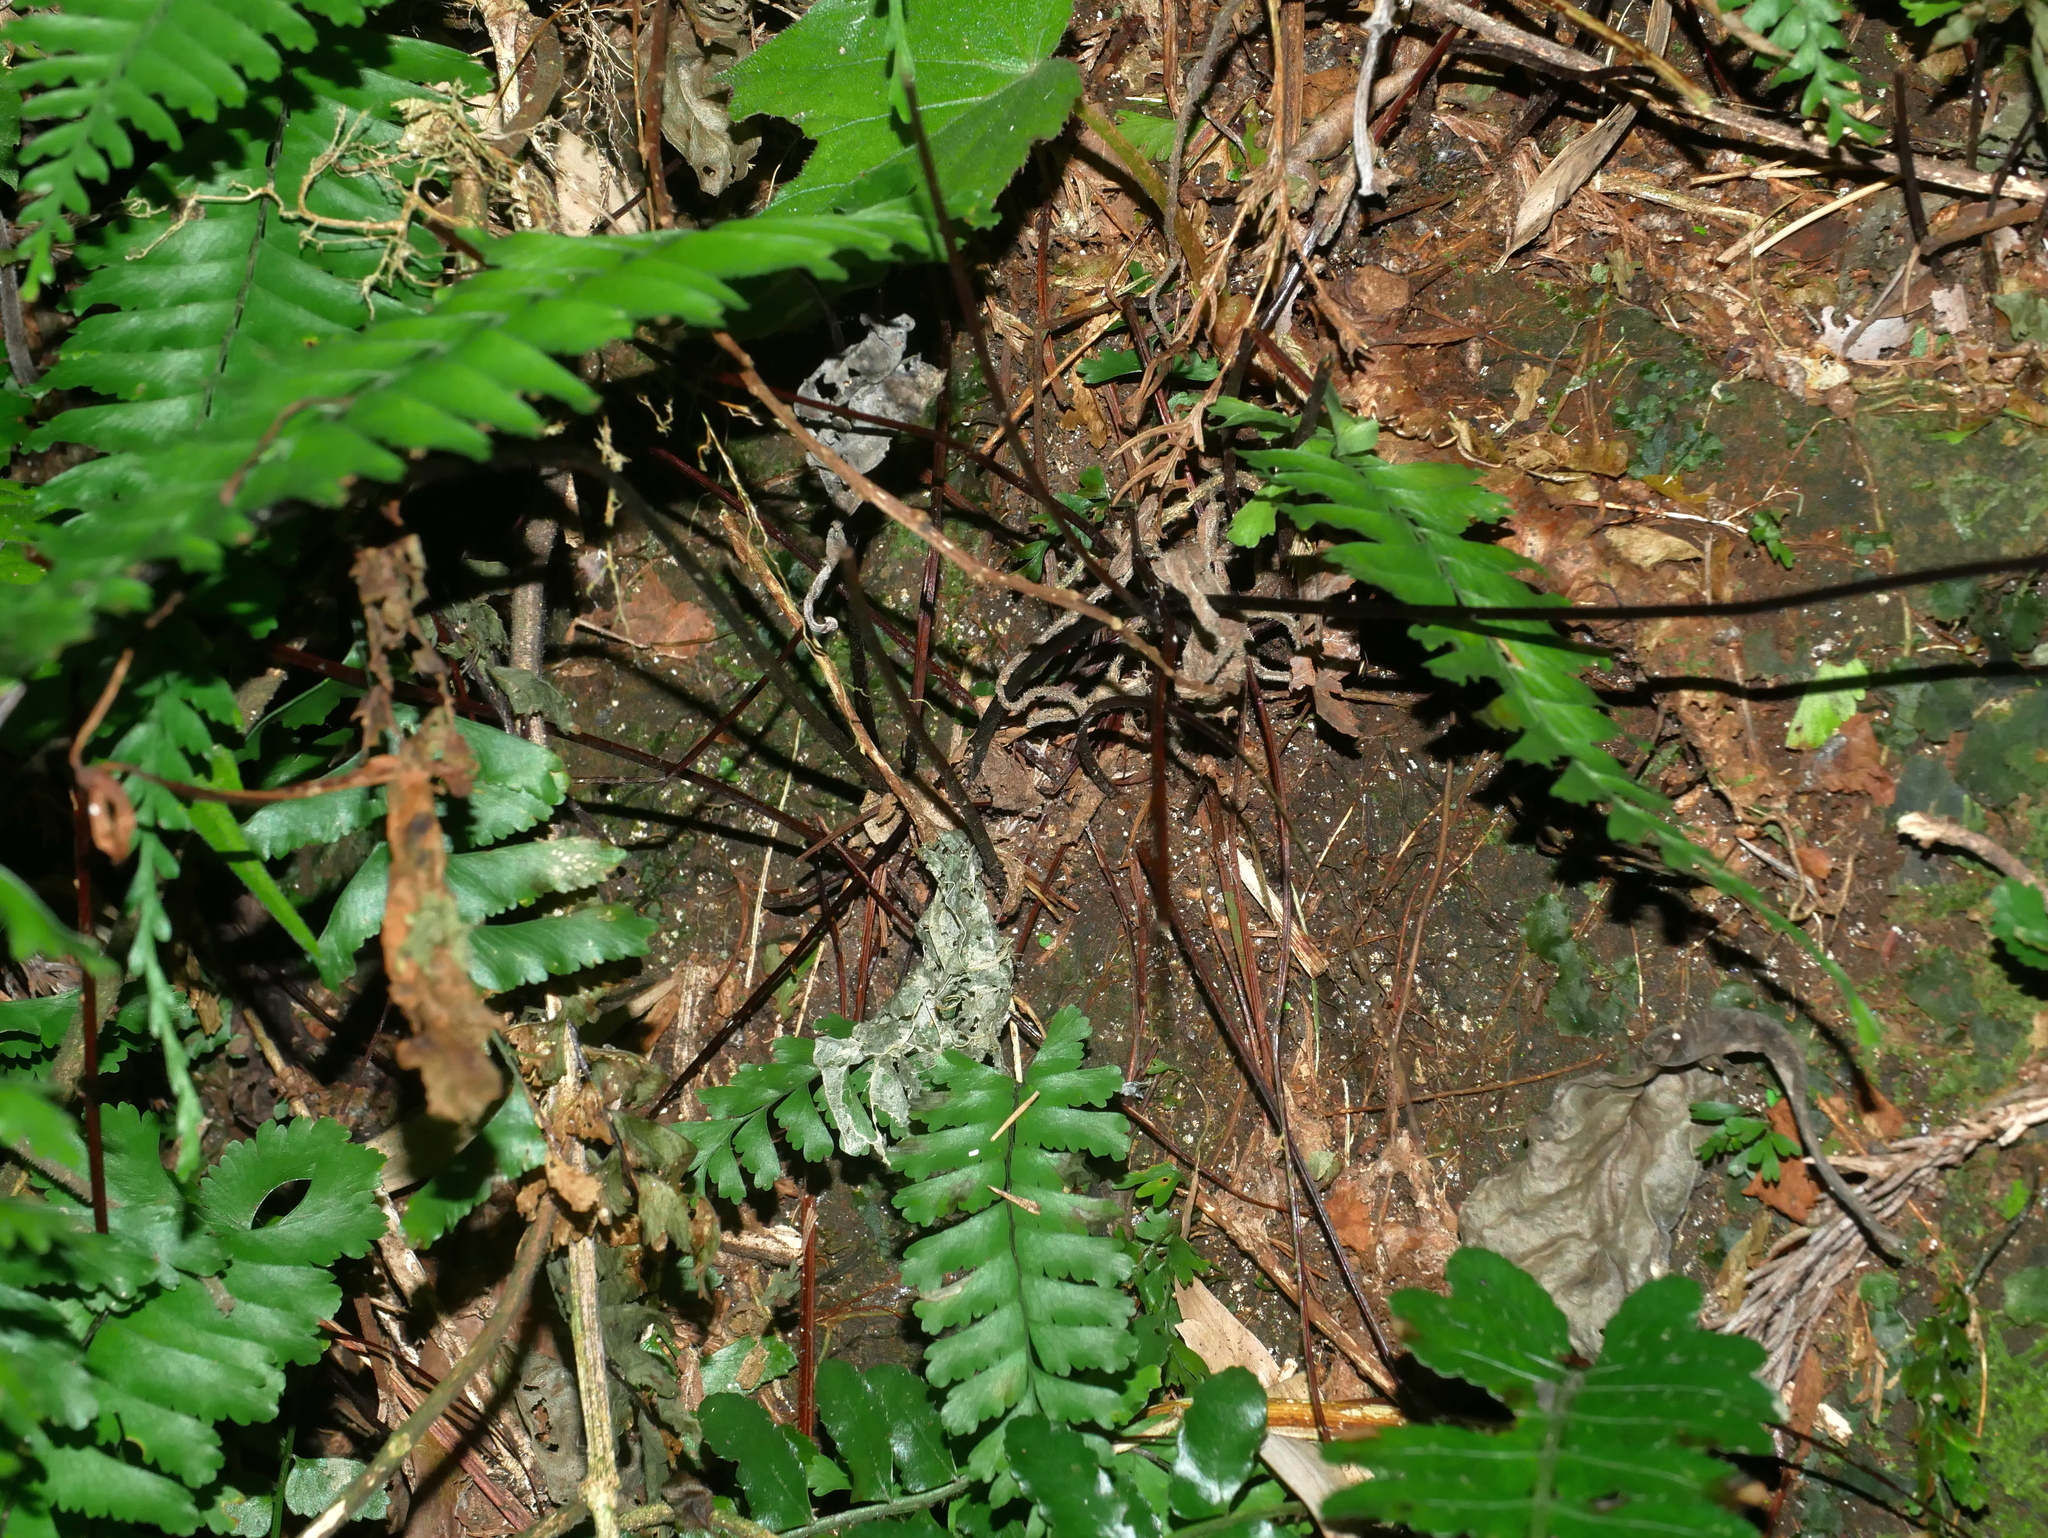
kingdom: Plantae
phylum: Tracheophyta
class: Polypodiopsida
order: Polypodiales
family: Aspleniaceae
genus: Hymenasplenium
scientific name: Hymenasplenium cheilosorum
